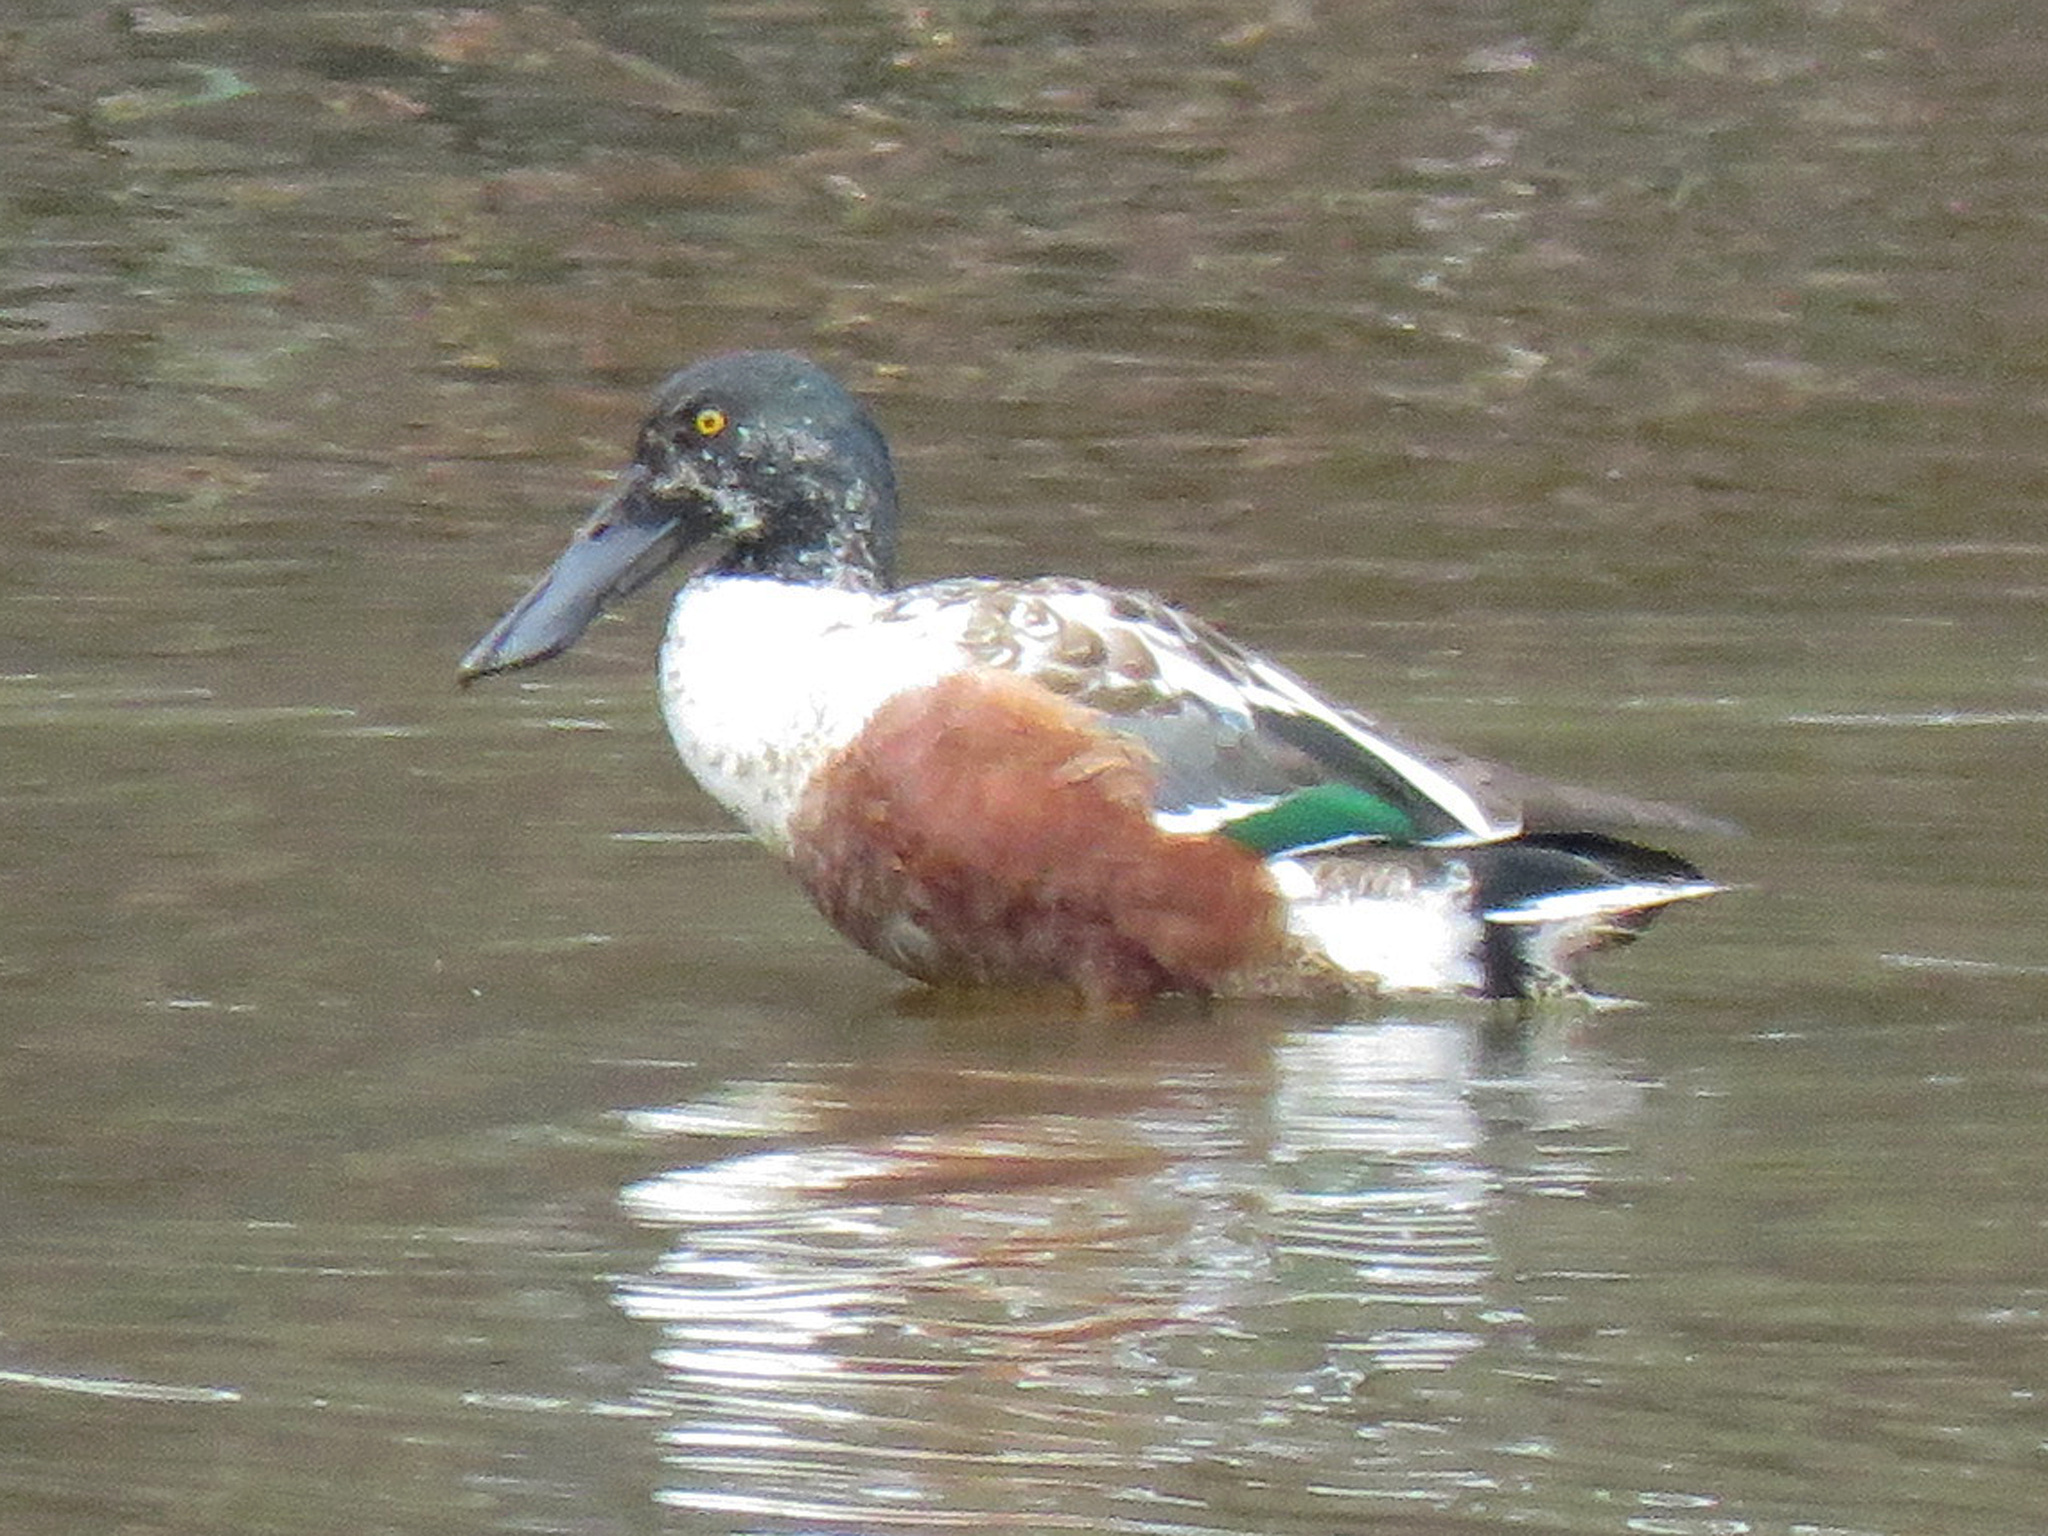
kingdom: Animalia
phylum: Chordata
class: Aves
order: Anseriformes
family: Anatidae
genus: Spatula
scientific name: Spatula clypeata
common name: Northern shoveler
